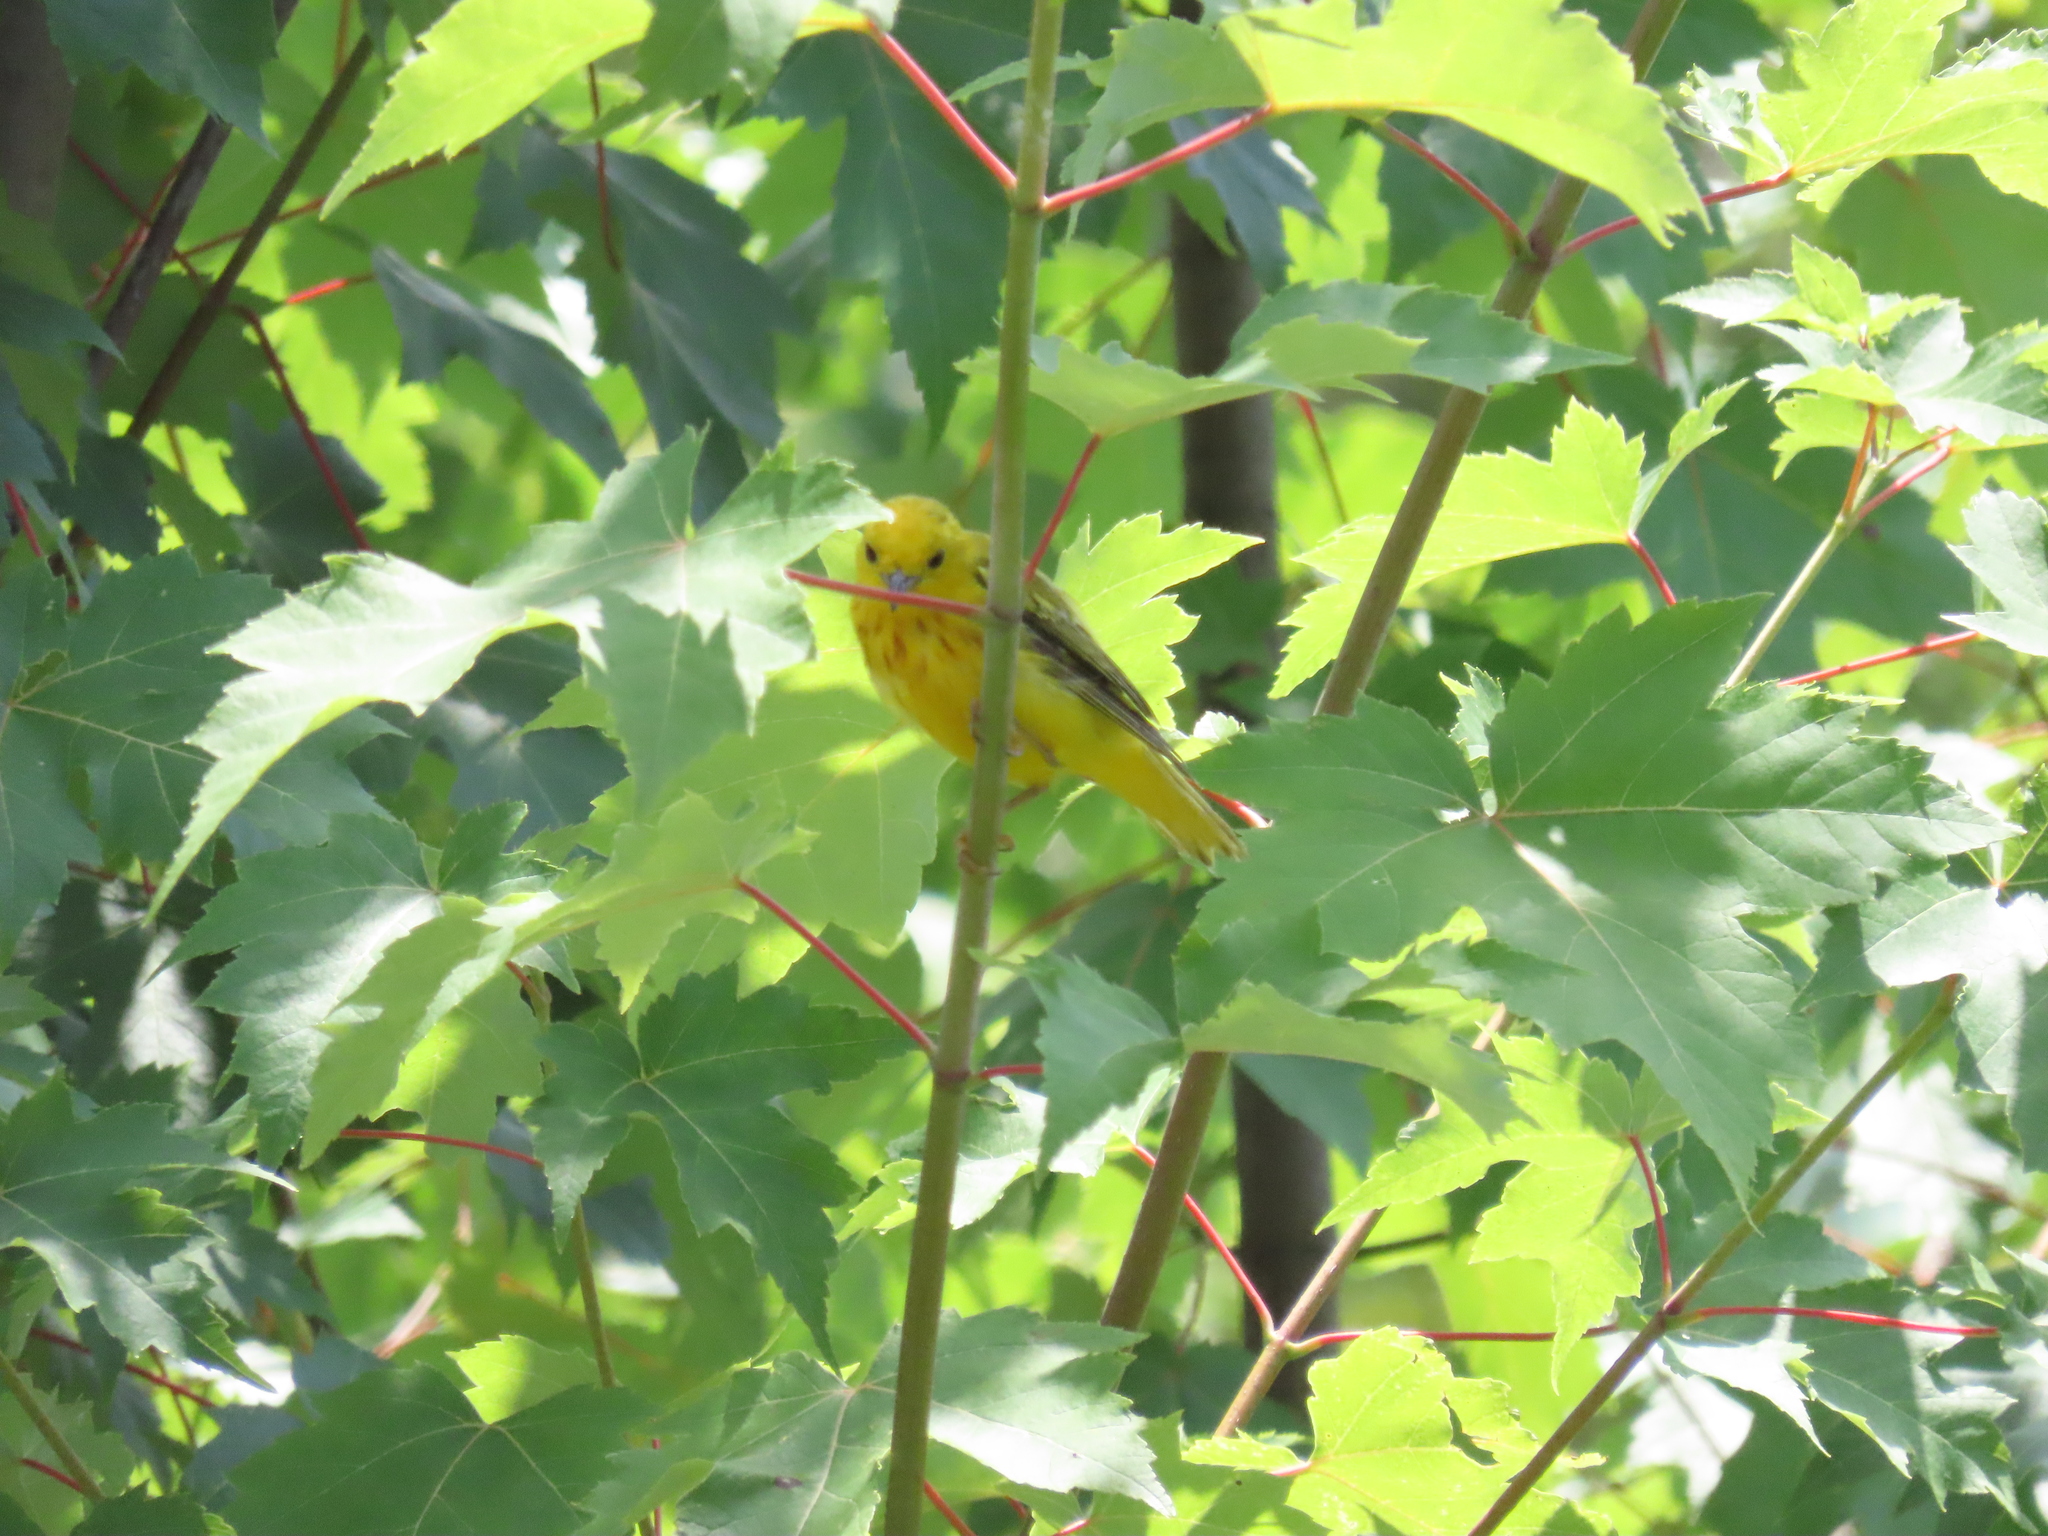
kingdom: Animalia
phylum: Chordata
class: Aves
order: Passeriformes
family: Parulidae
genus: Setophaga
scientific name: Setophaga petechia
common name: Yellow warbler
